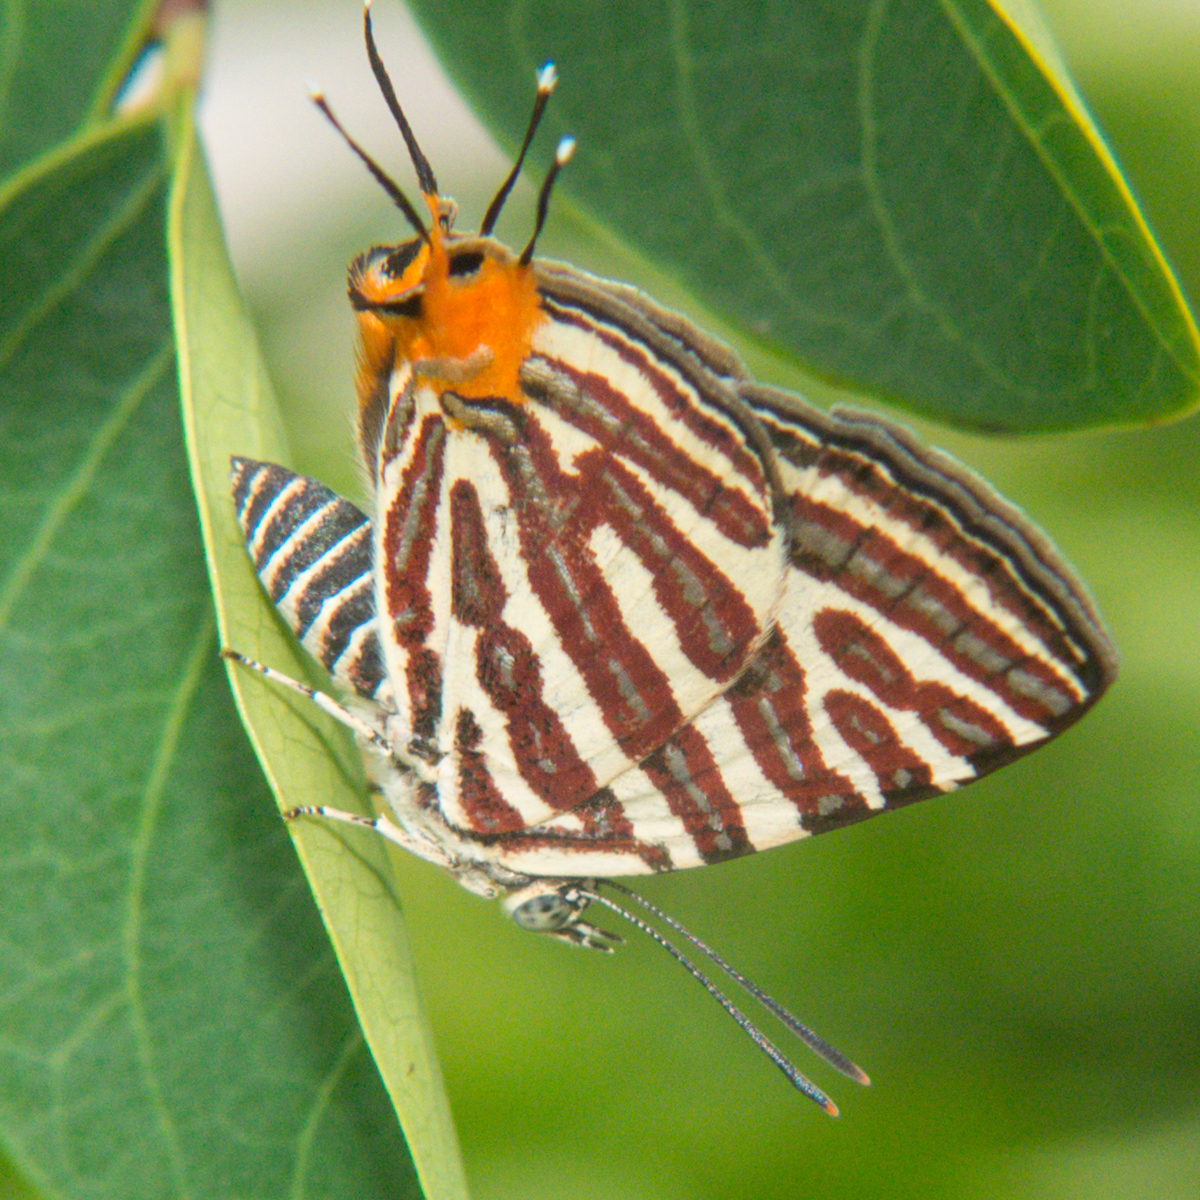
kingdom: Animalia
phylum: Arthropoda
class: Insecta
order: Lepidoptera
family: Lycaenidae
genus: Cigaritis
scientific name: Cigaritis lohita
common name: Long-banded silverline
